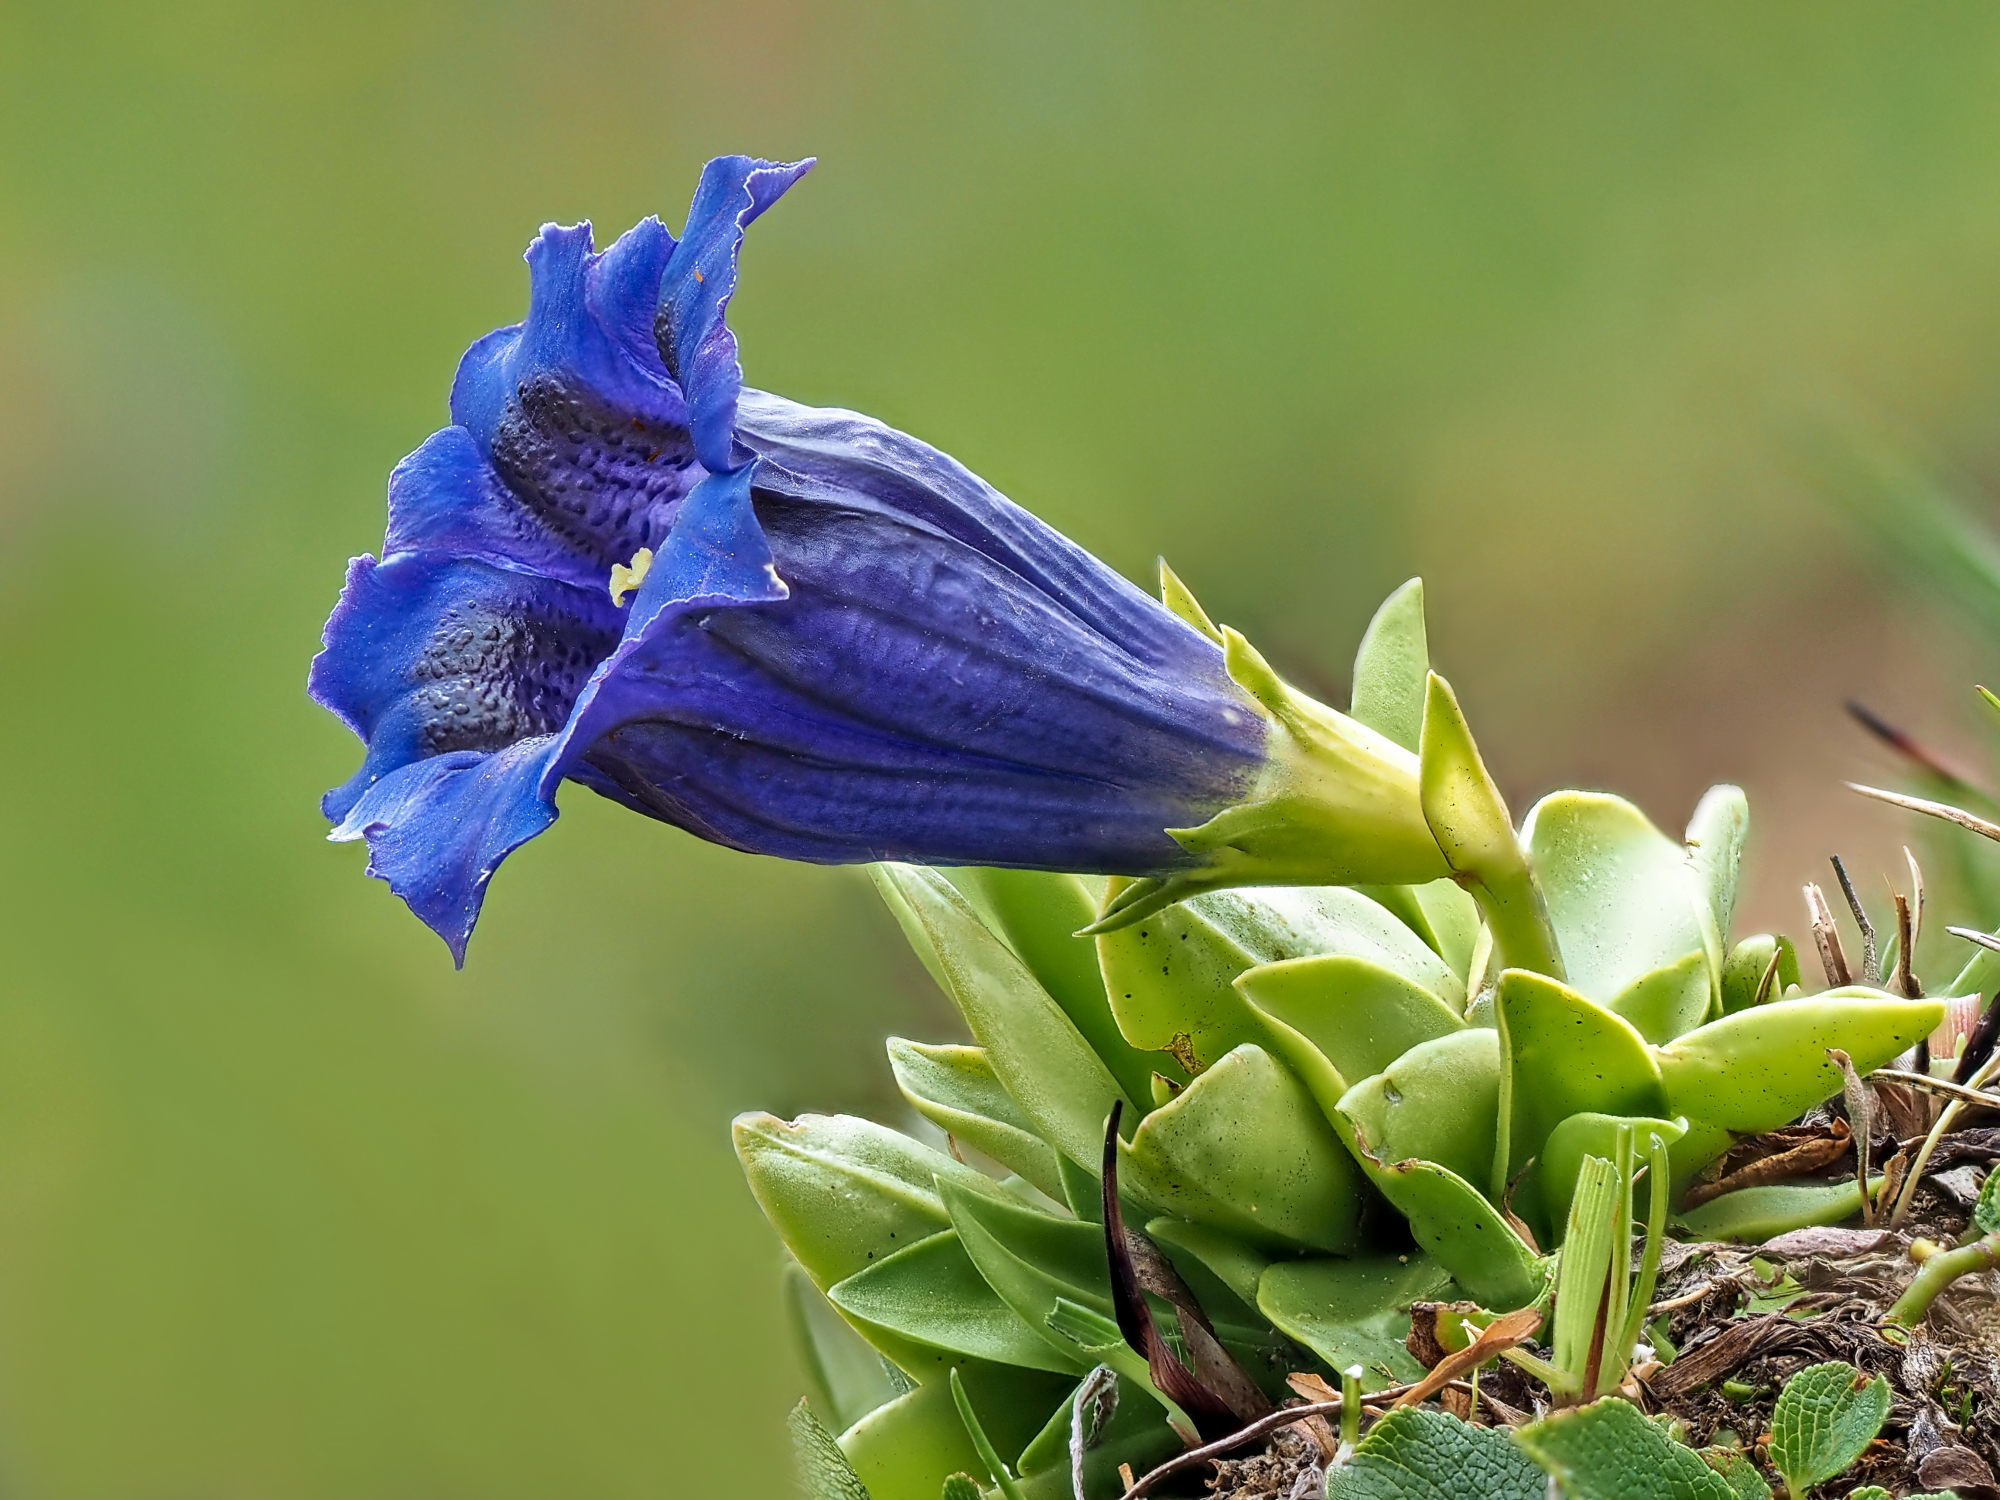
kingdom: Plantae
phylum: Tracheophyta
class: Magnoliopsida
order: Gentianales
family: Gentianaceae
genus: Gentiana
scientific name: Gentiana alpina
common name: Southern gentian
